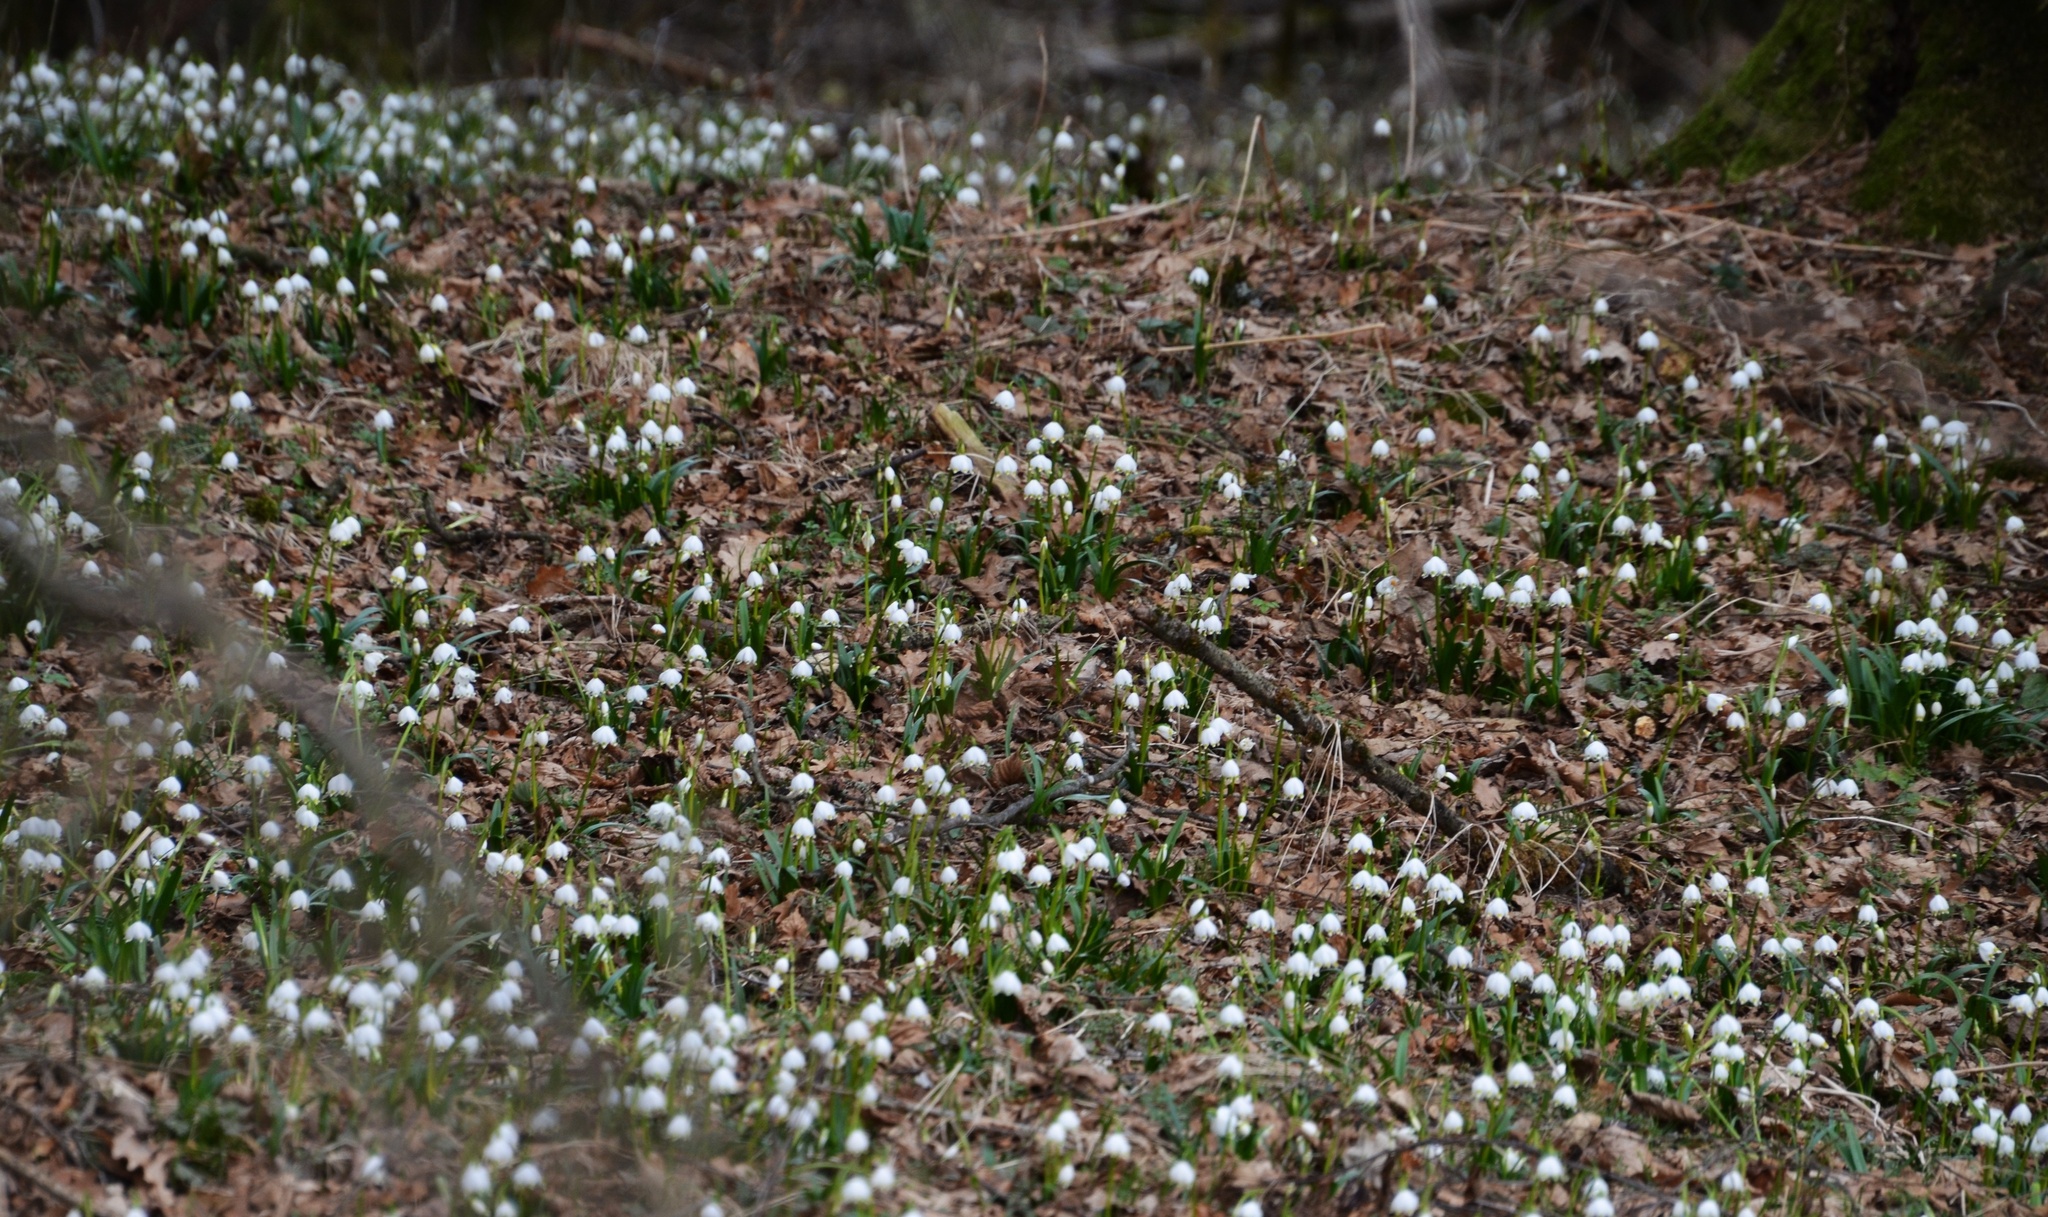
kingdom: Plantae
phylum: Tracheophyta
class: Liliopsida
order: Asparagales
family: Amaryllidaceae
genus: Leucojum
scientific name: Leucojum vernum
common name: Spring snowflake
